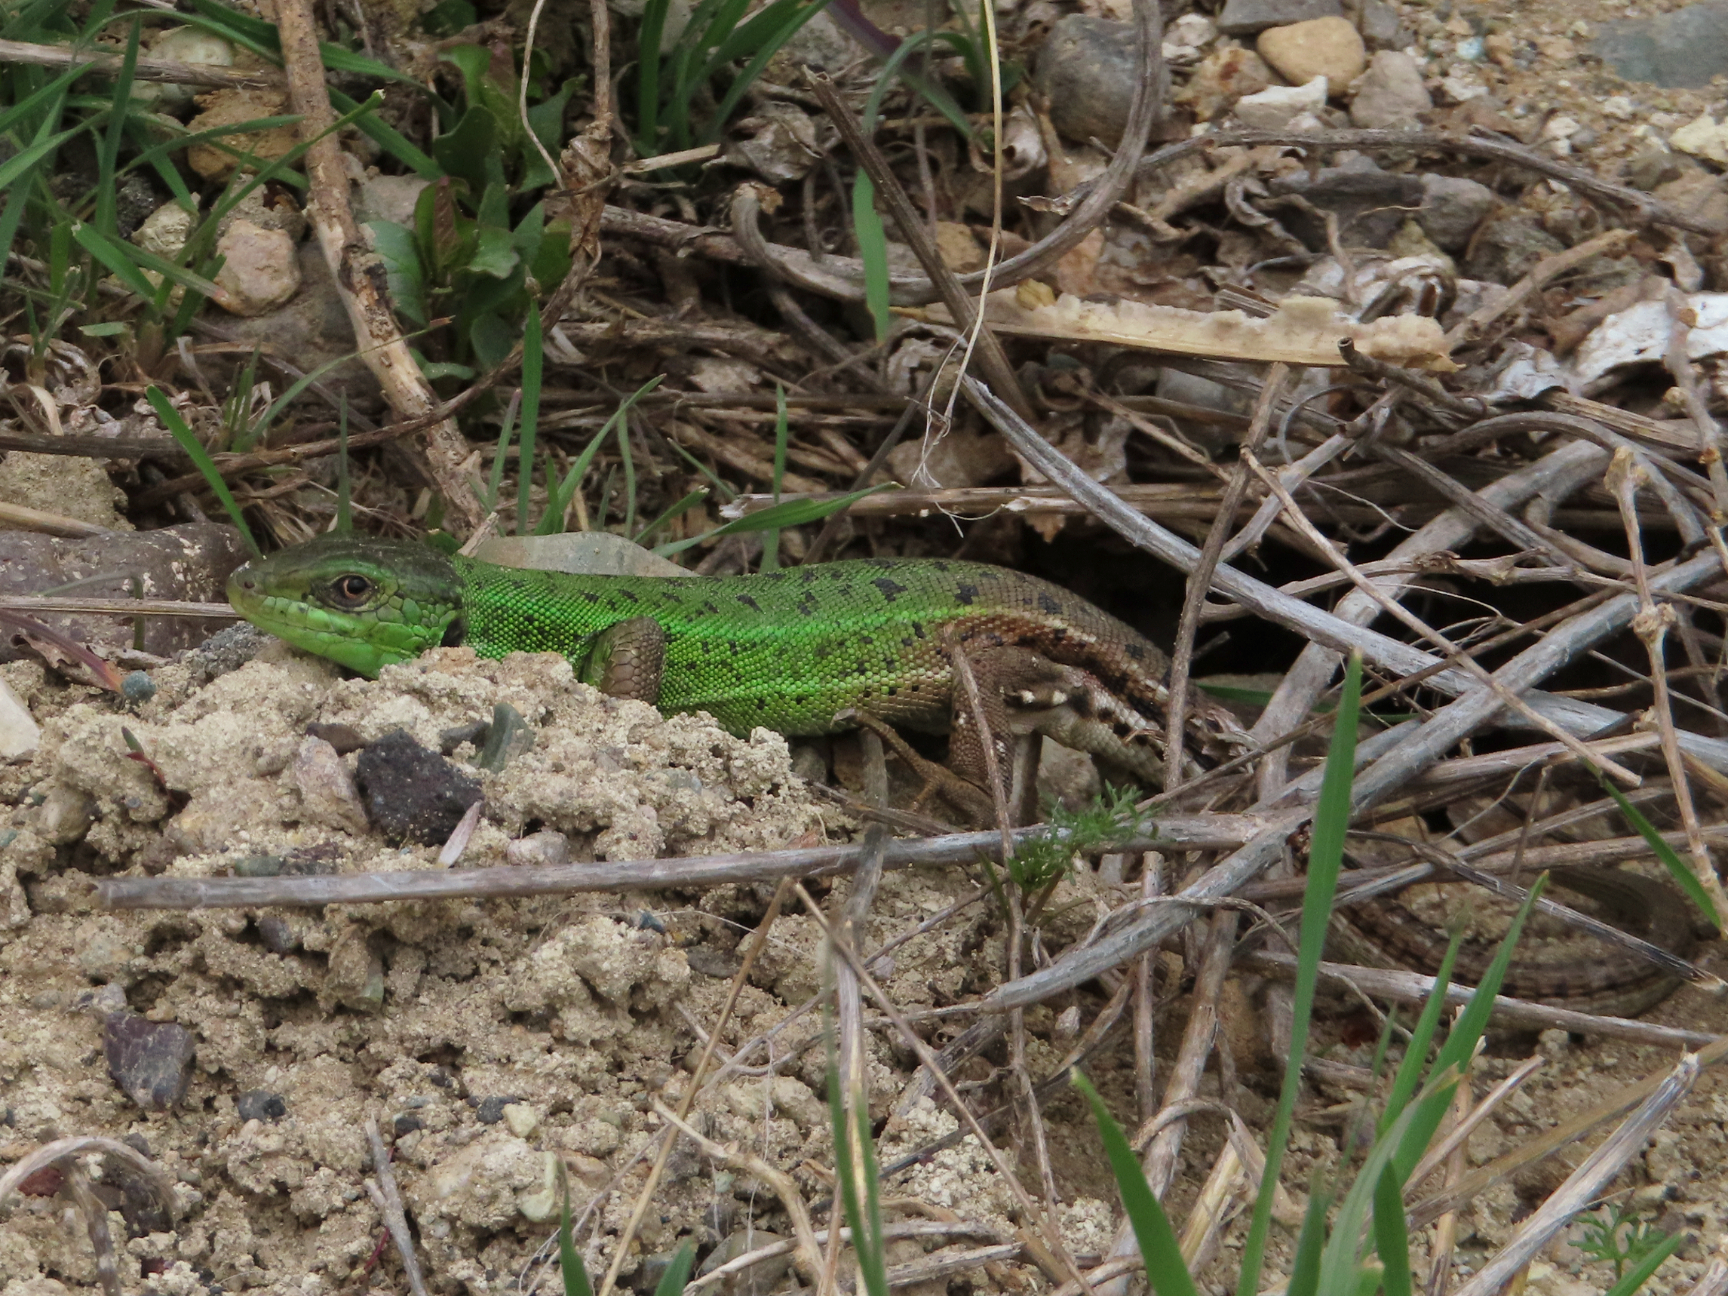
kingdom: Animalia
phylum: Chordata
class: Squamata
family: Lacertidae
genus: Lacerta
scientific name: Lacerta strigata
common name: Caspian green lizard
